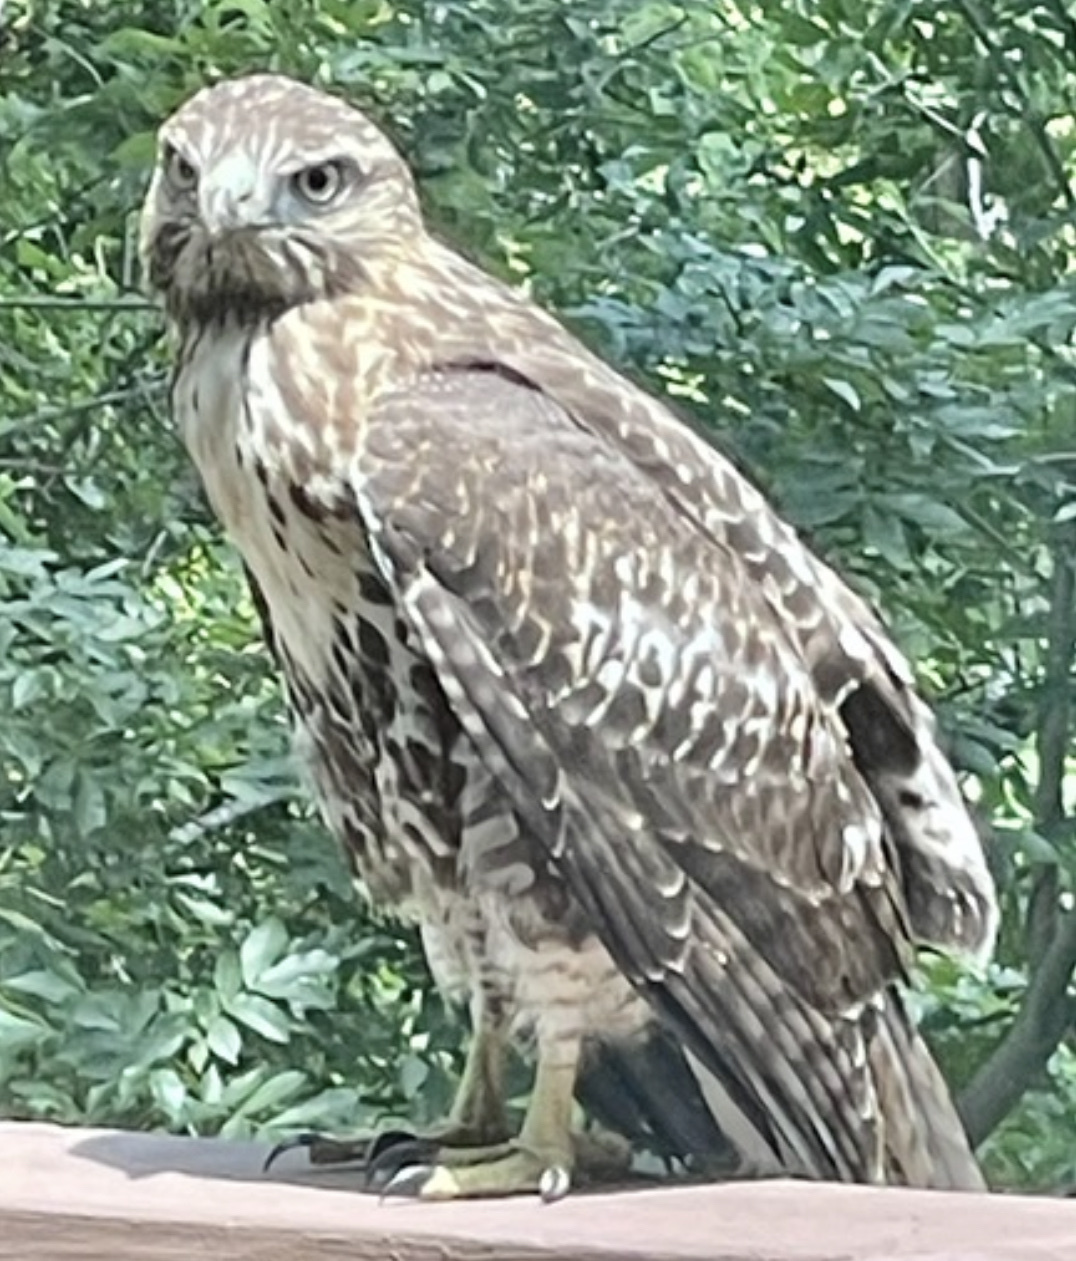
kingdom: Animalia
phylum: Chordata
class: Aves
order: Accipitriformes
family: Accipitridae
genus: Buteo
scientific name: Buteo jamaicensis
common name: Red-tailed hawk
